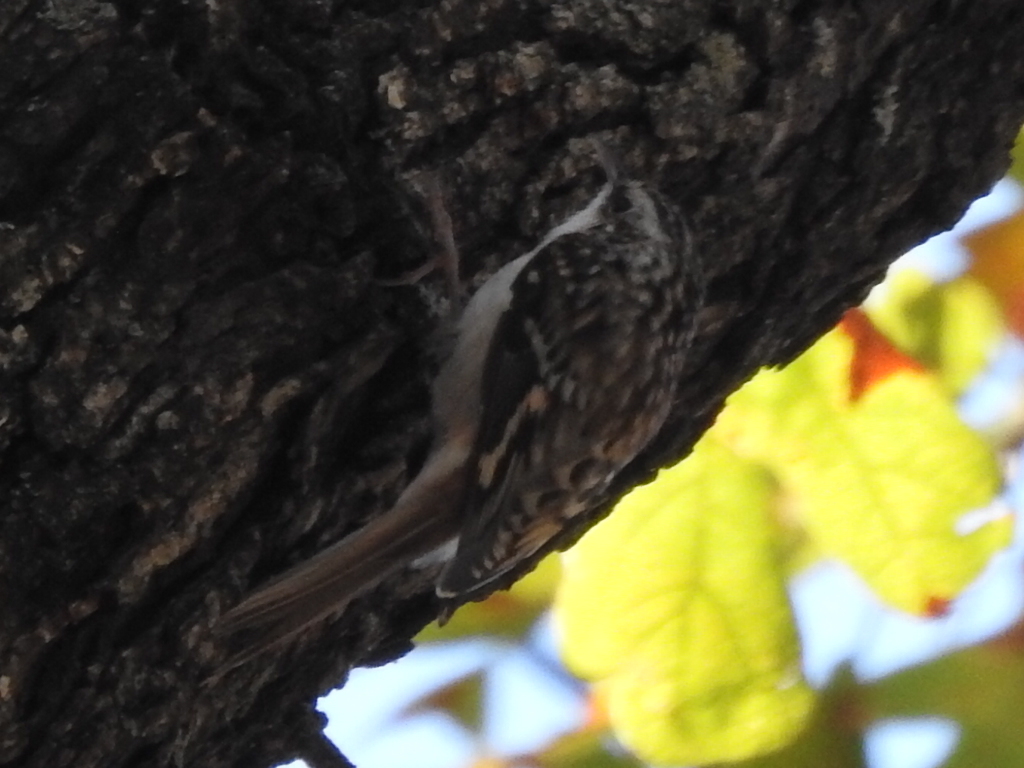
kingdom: Animalia
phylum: Chordata
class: Aves
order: Passeriformes
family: Certhiidae
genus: Certhia
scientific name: Certhia americana
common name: Brown creeper
